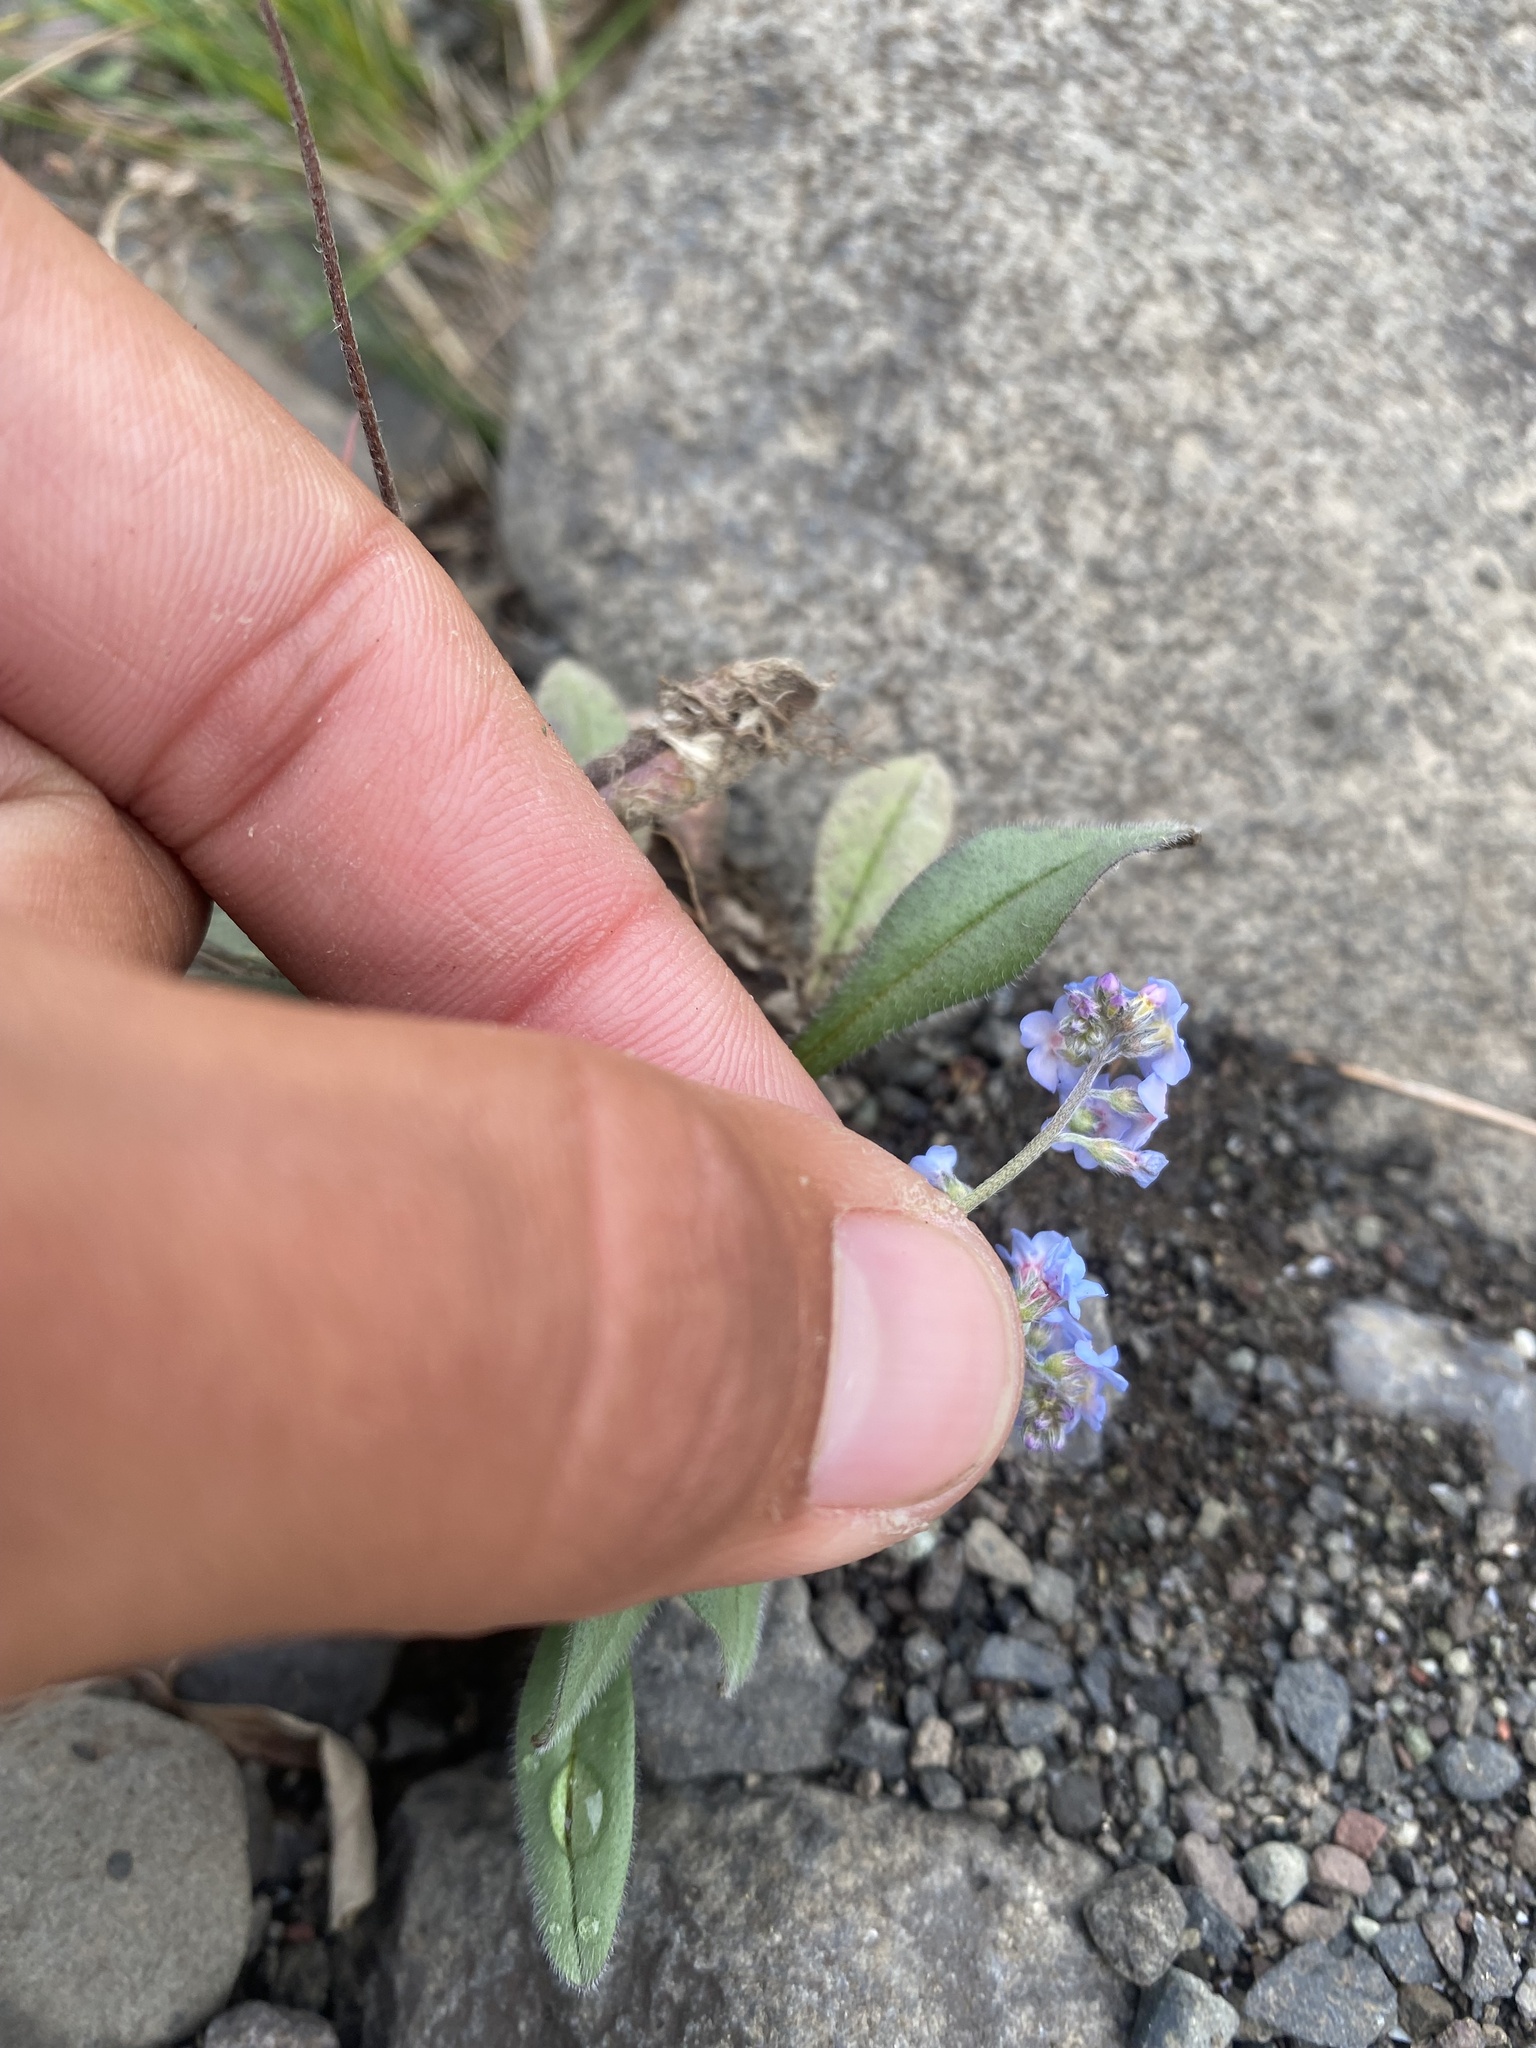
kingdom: Plantae
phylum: Tracheophyta
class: Magnoliopsida
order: Boraginales
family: Boraginaceae
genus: Myosotis
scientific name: Myosotis asiatica
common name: Asian forget-me-not
